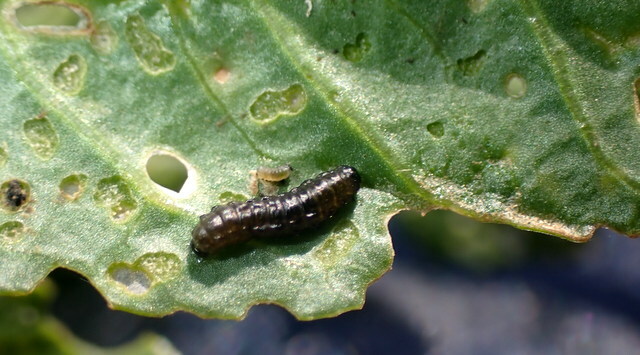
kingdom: Animalia
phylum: Arthropoda
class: Insecta
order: Coleoptera
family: Chrysomelidae
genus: Agasicles
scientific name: Agasicles hygrophila
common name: Alligatorweed flea beetle
